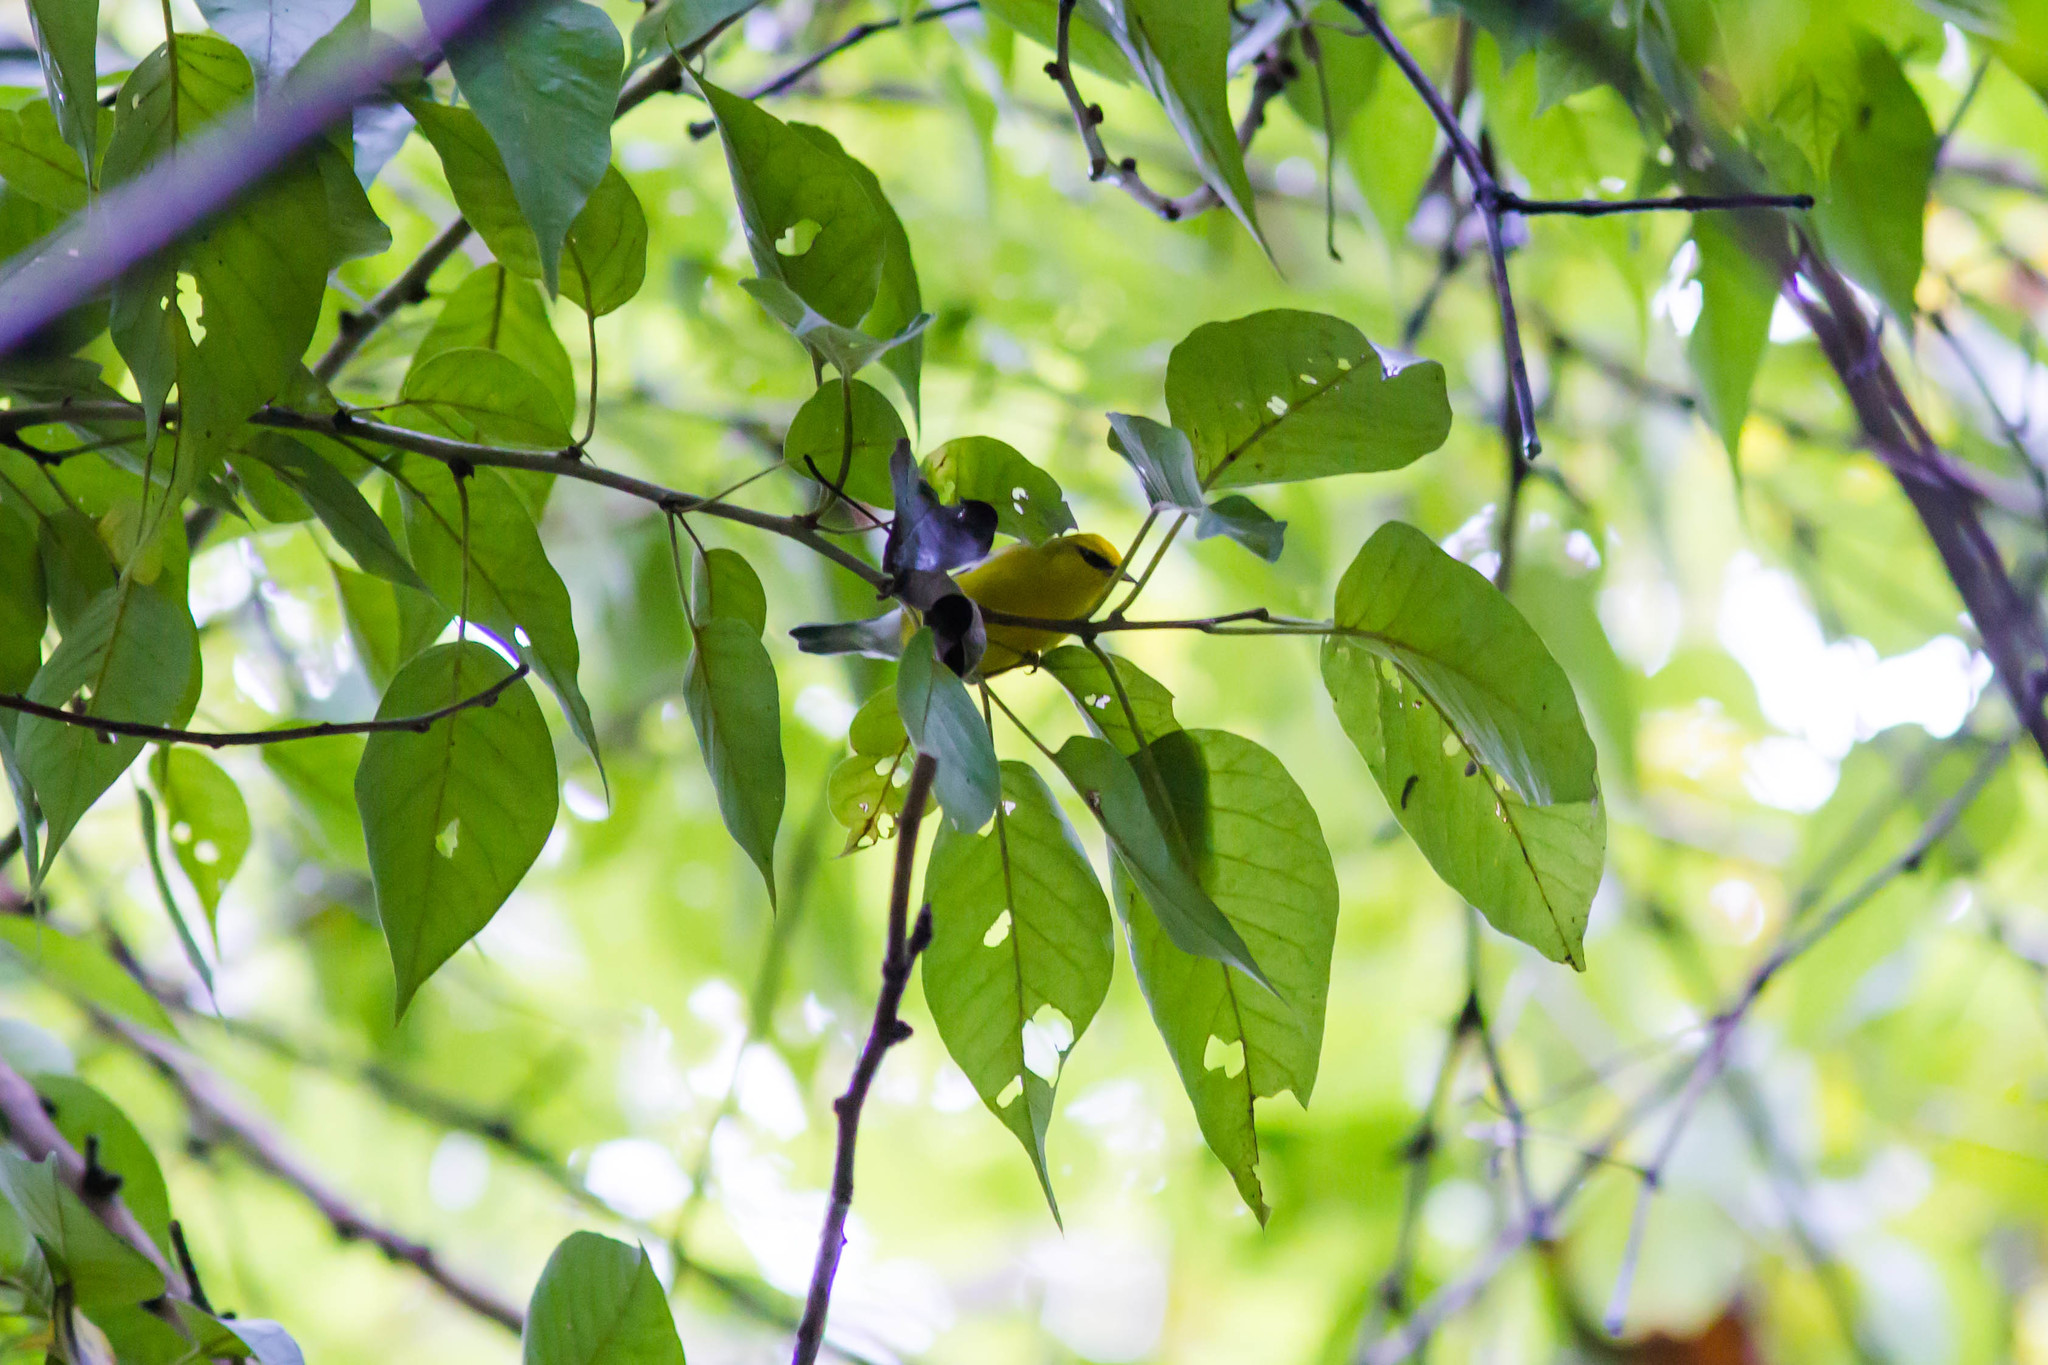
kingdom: Animalia
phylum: Chordata
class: Aves
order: Passeriformes
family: Parulidae
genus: Vermivora
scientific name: Vermivora cyanoptera
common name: Blue-winged warbler
